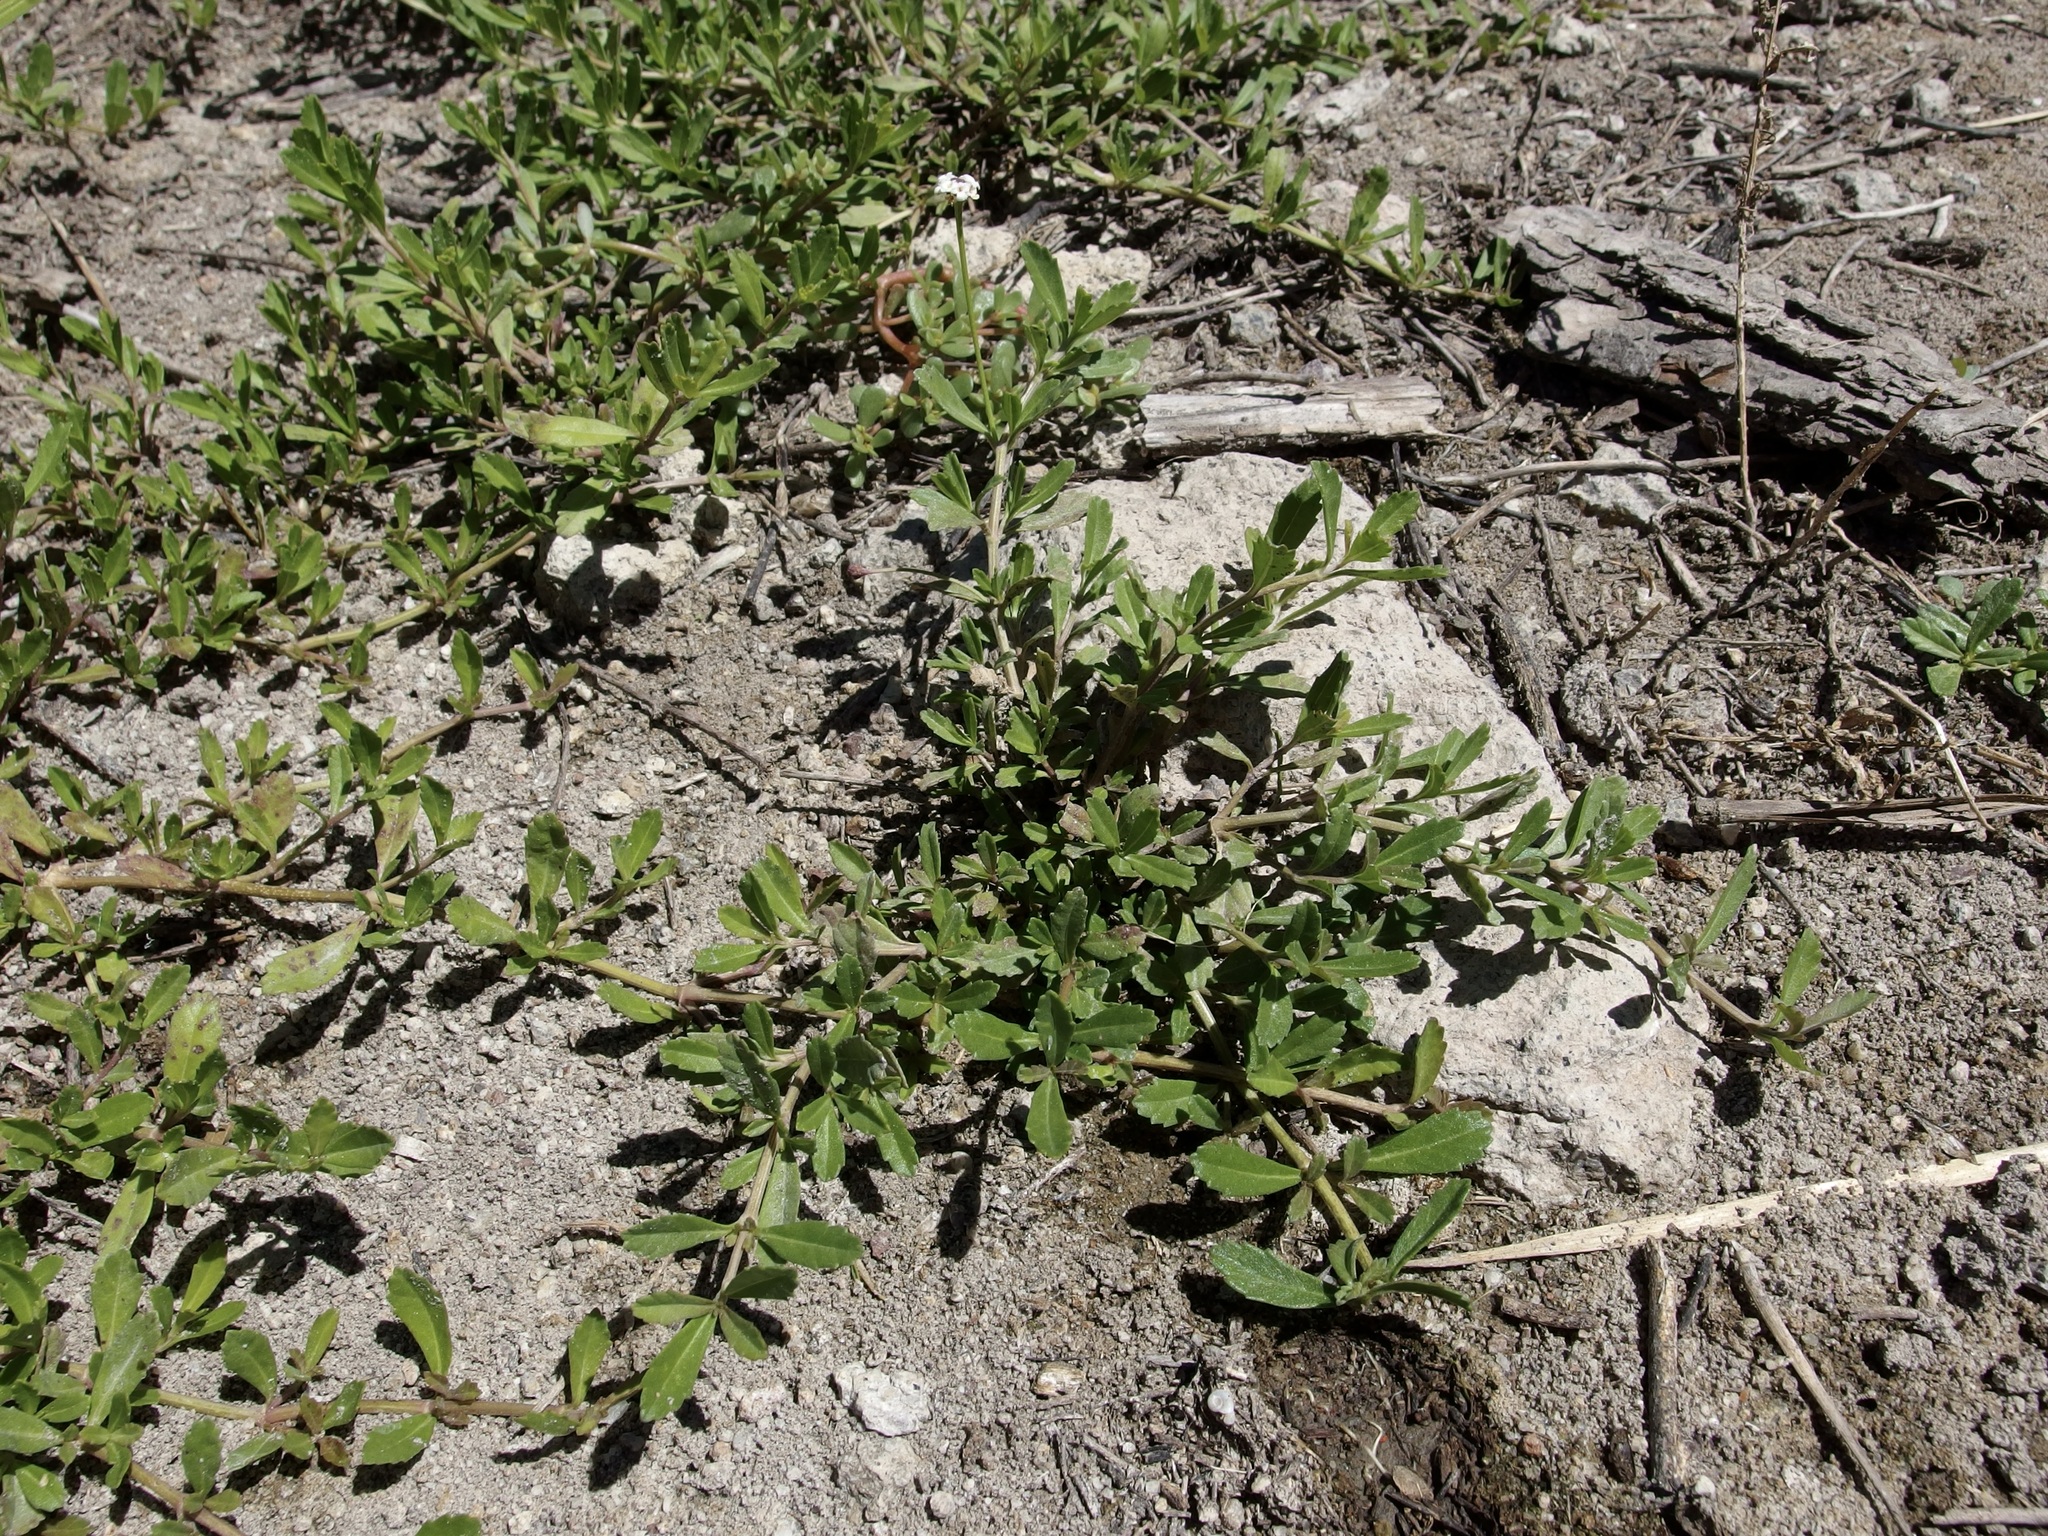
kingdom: Plantae
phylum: Tracheophyta
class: Magnoliopsida
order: Lamiales
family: Verbenaceae
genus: Phyla
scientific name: Phyla nodiflora
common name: Frogfruit
